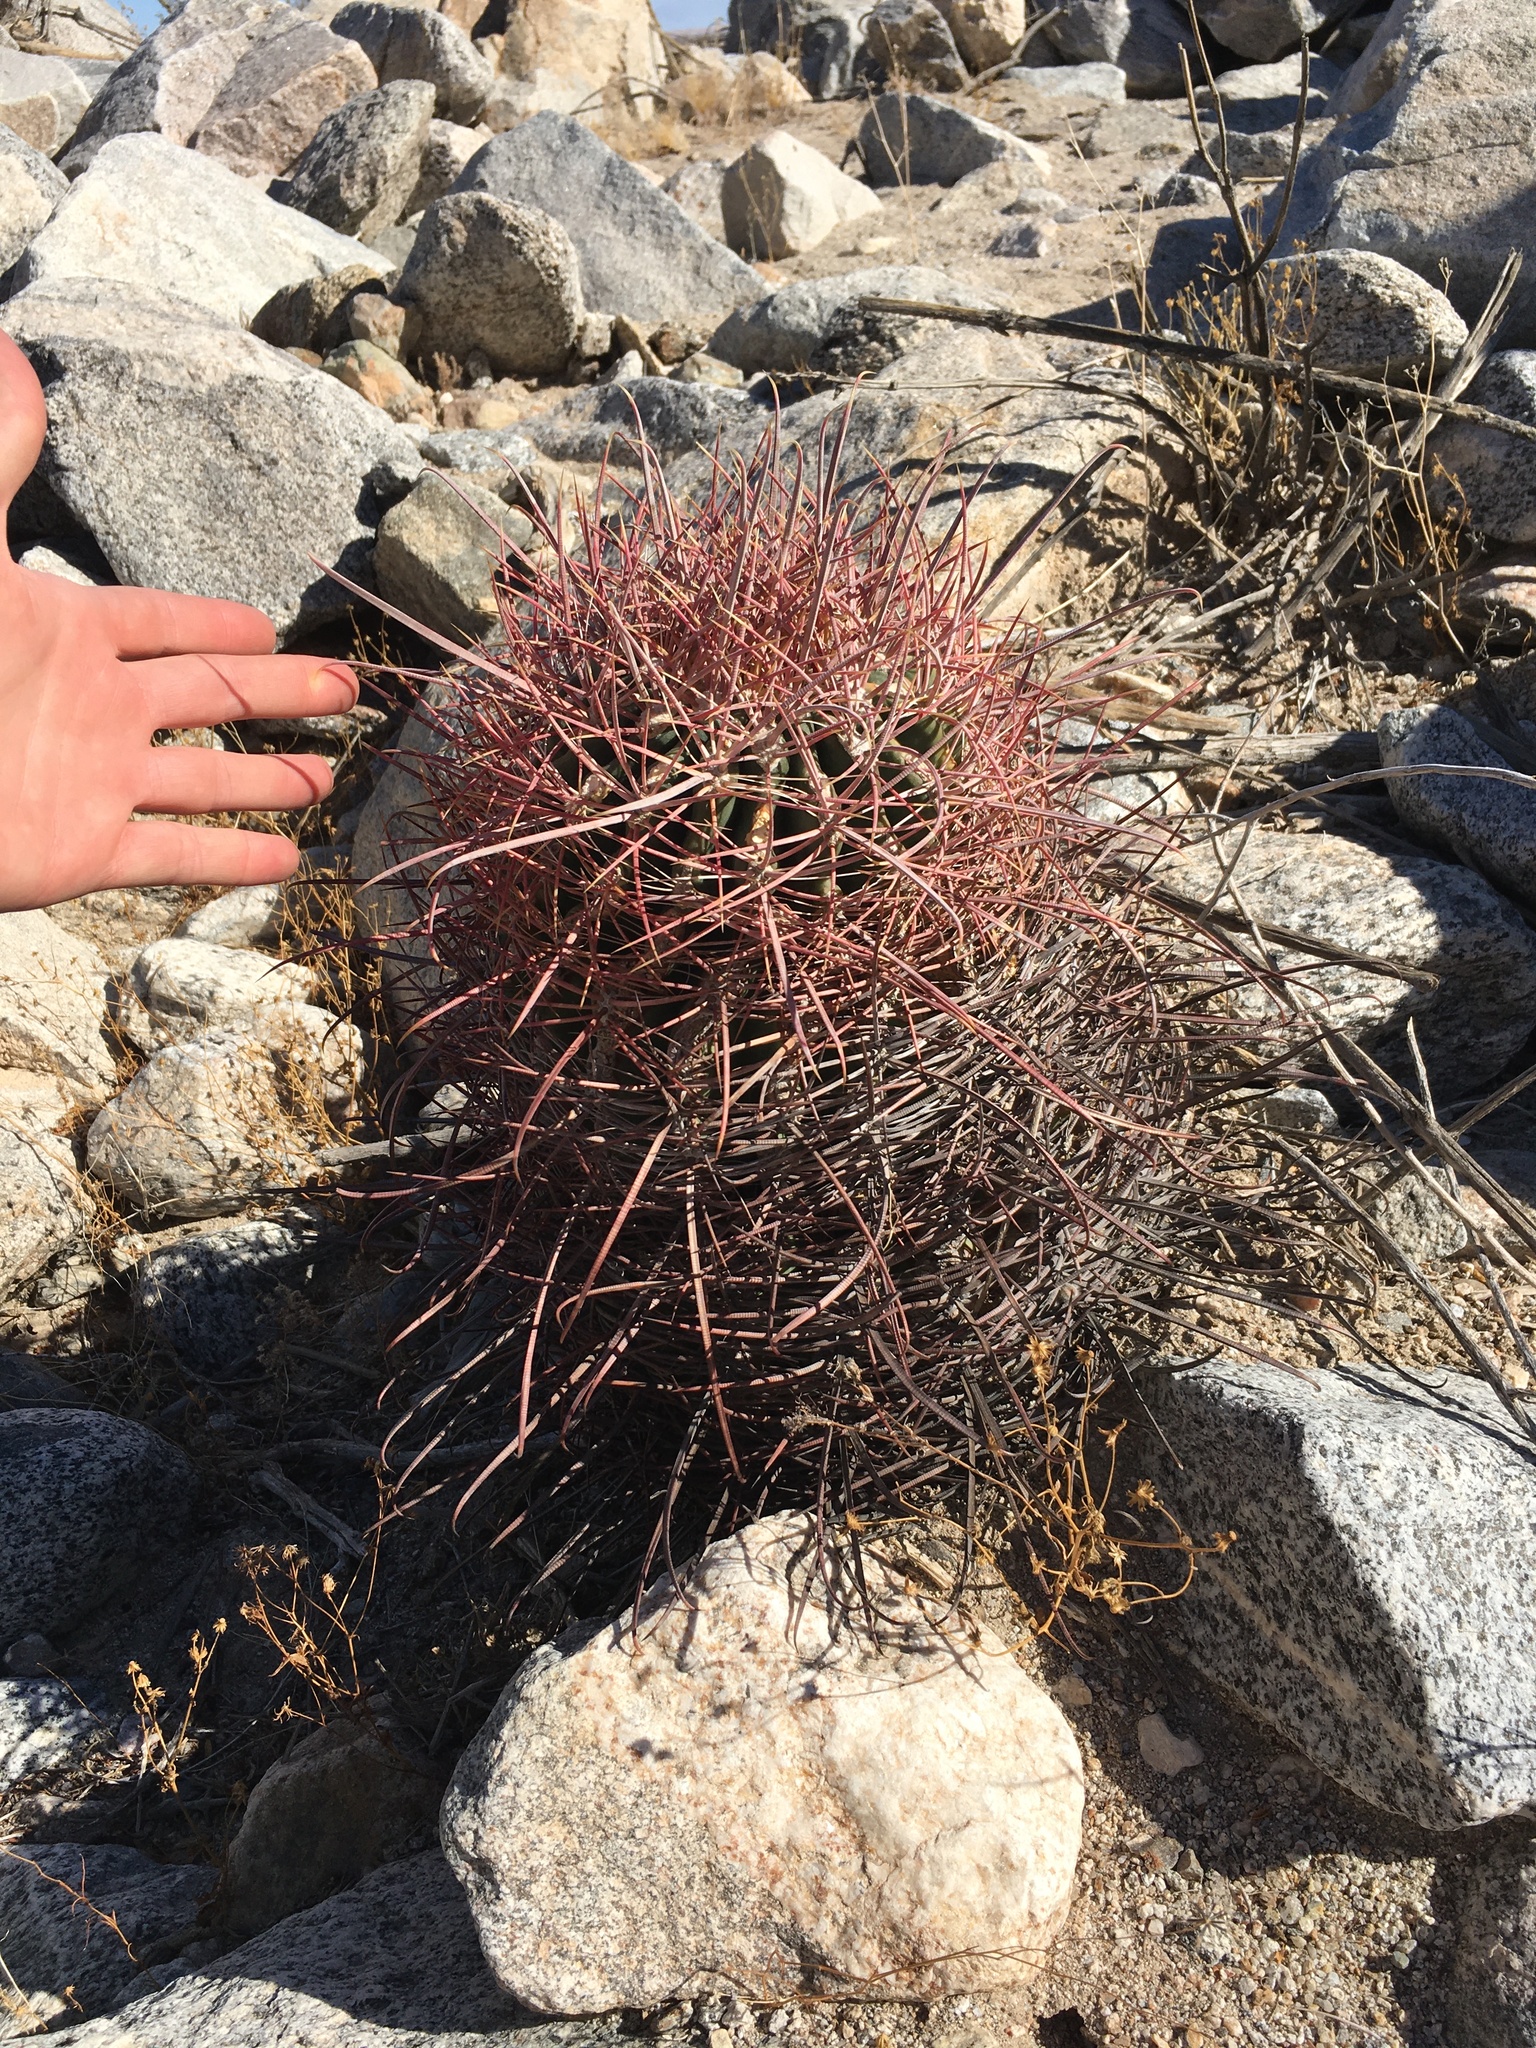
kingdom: Plantae
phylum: Tracheophyta
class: Magnoliopsida
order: Caryophyllales
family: Cactaceae
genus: Ferocactus
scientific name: Ferocactus cylindraceus
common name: California barrel cactus
